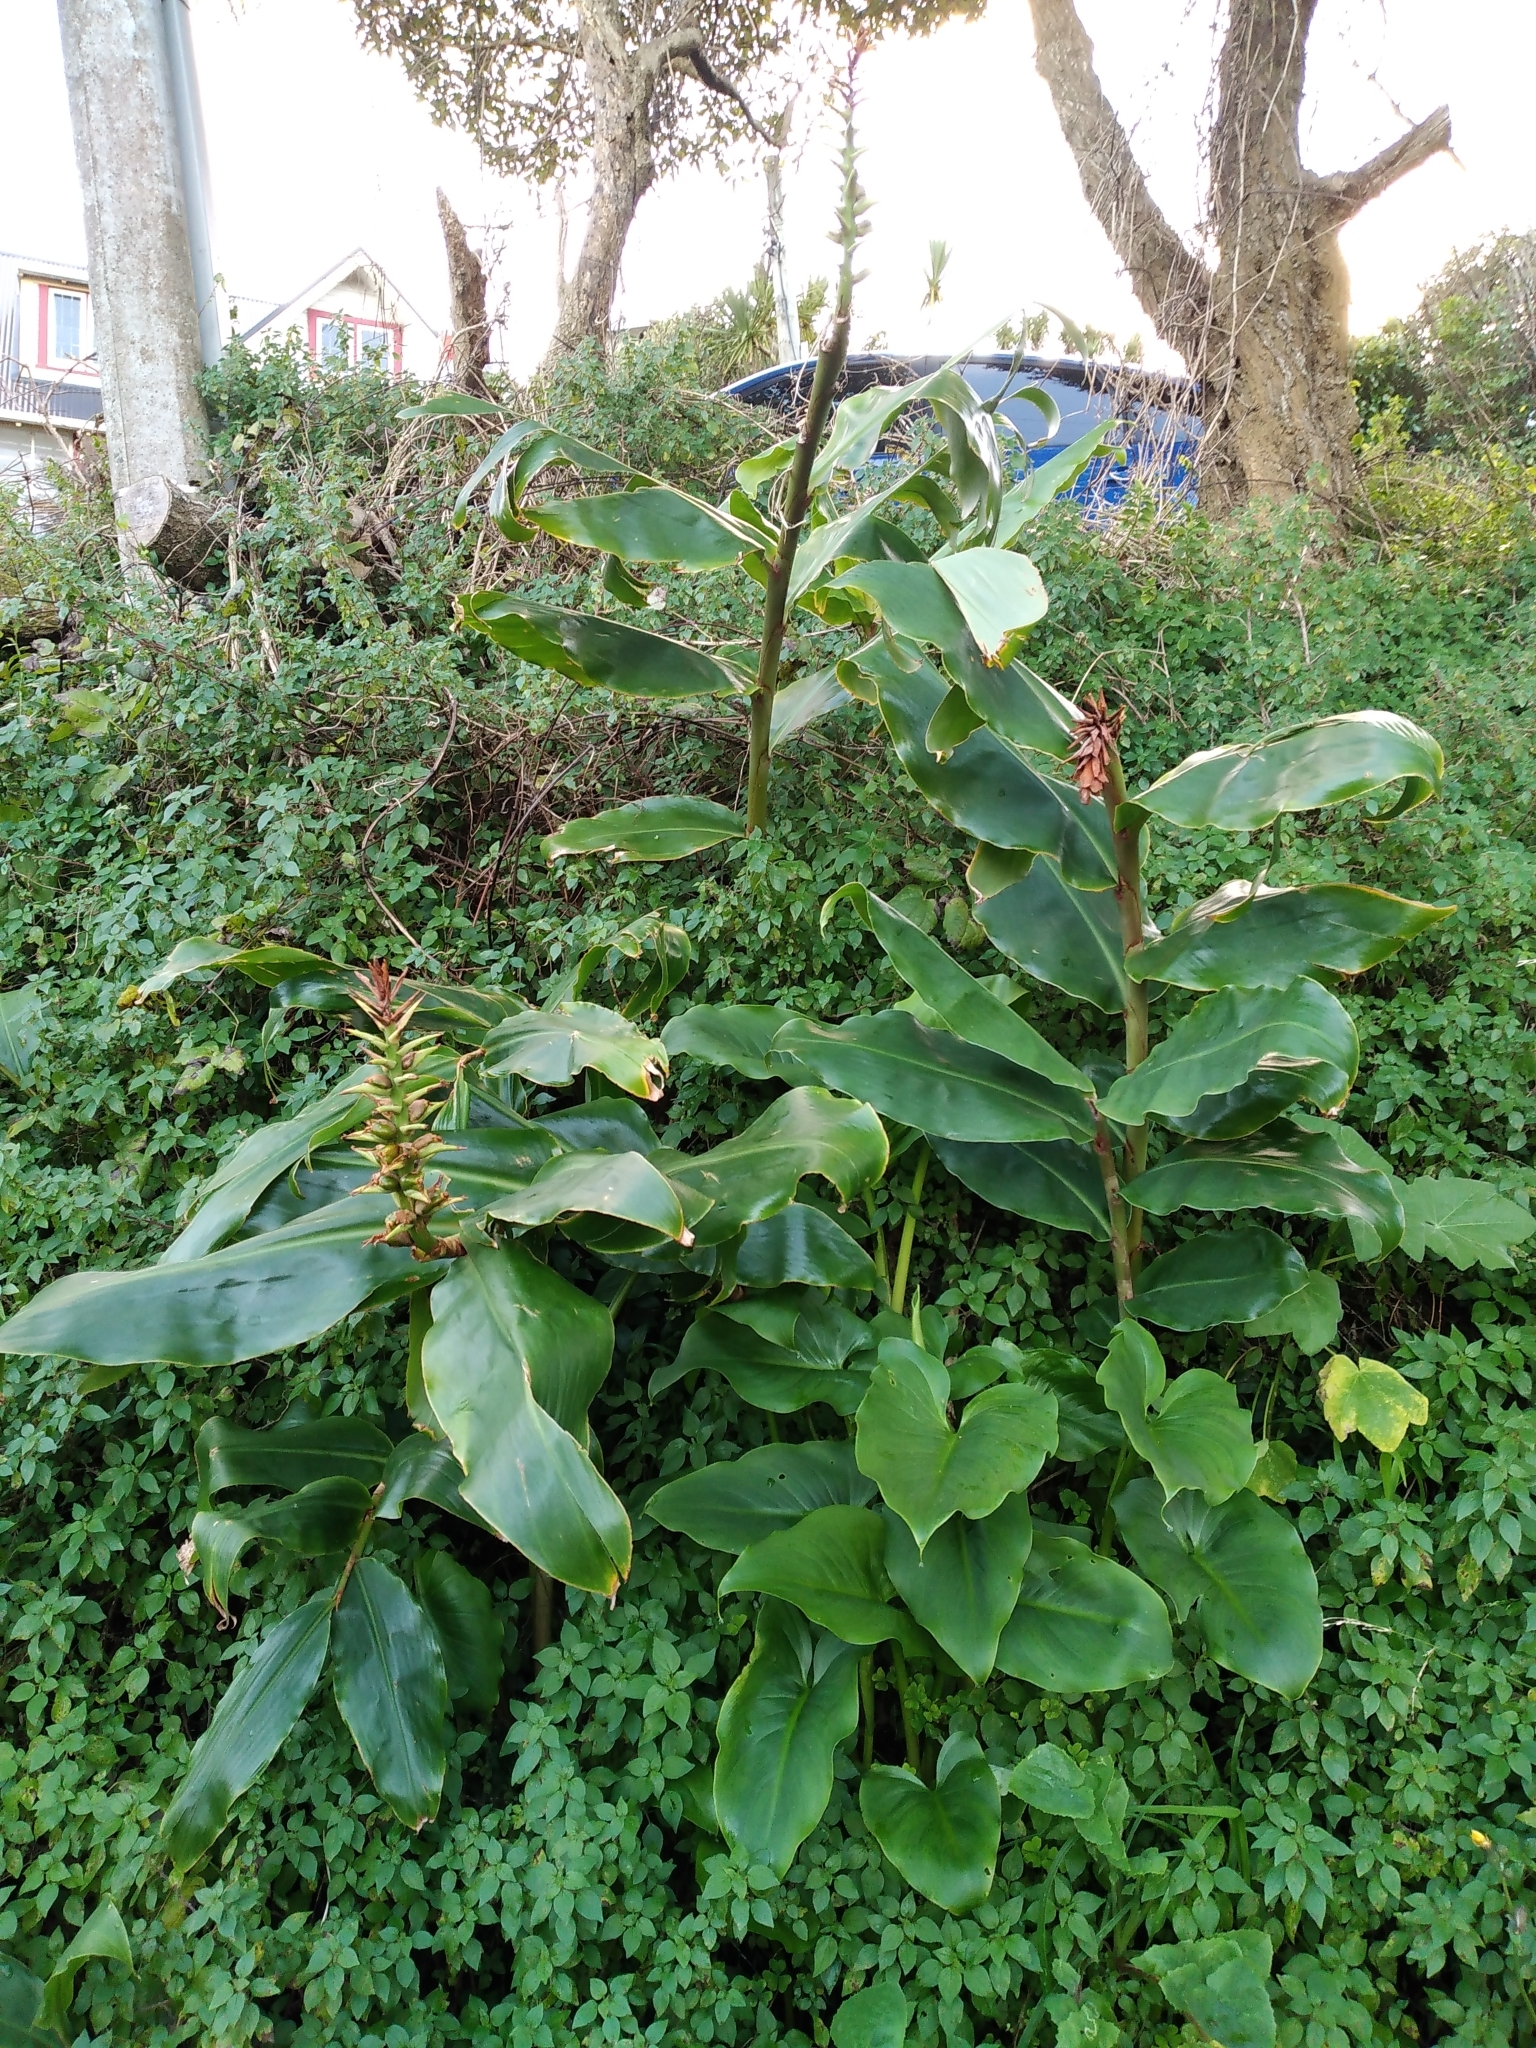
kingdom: Plantae
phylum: Tracheophyta
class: Liliopsida
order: Zingiberales
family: Zingiberaceae
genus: Hedychium
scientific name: Hedychium gardnerianum
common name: Himalayan ginger
